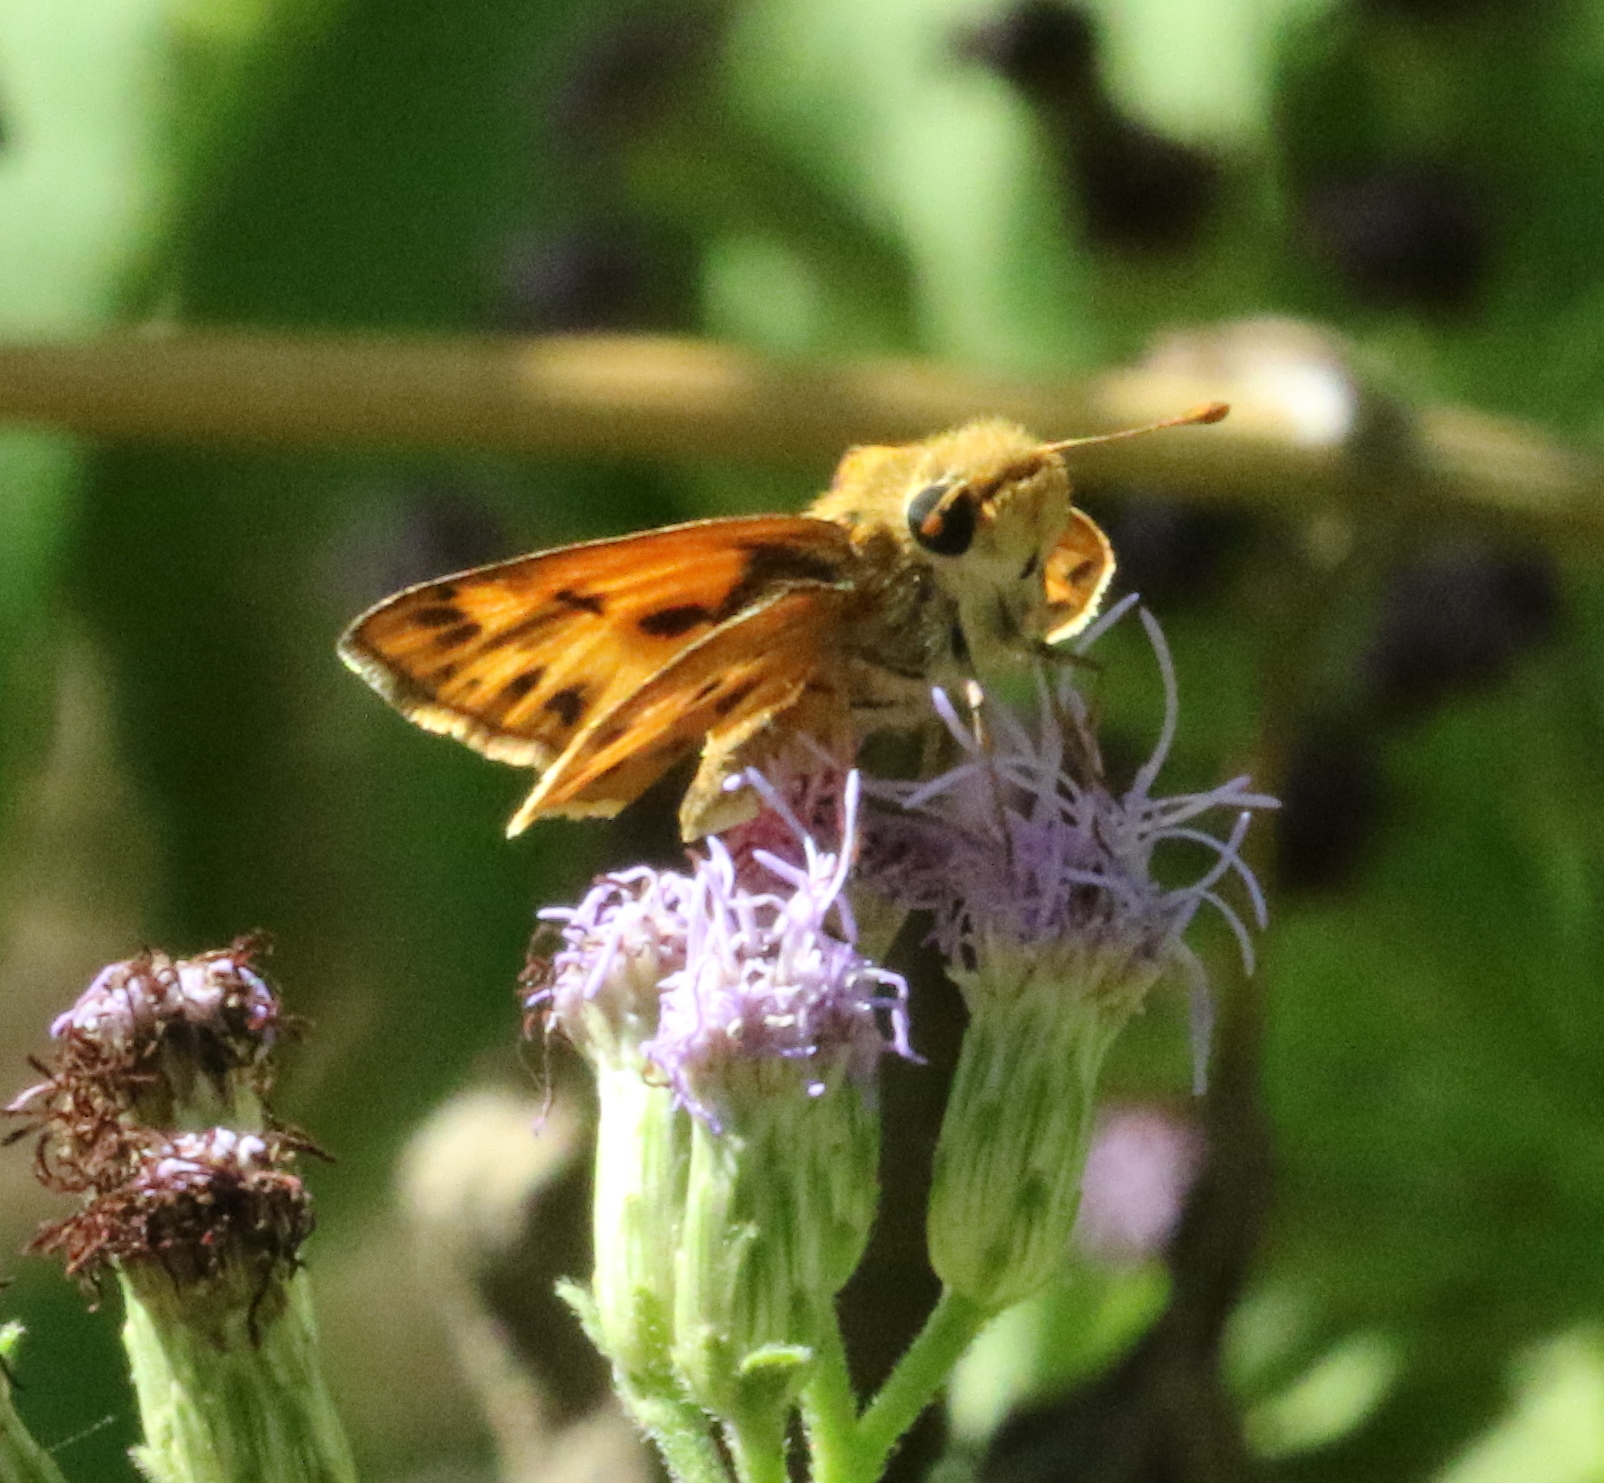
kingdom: Animalia
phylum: Arthropoda
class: Insecta
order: Lepidoptera
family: Hesperiidae
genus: Hylephila
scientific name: Hylephila phyleus
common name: Fiery skipper
